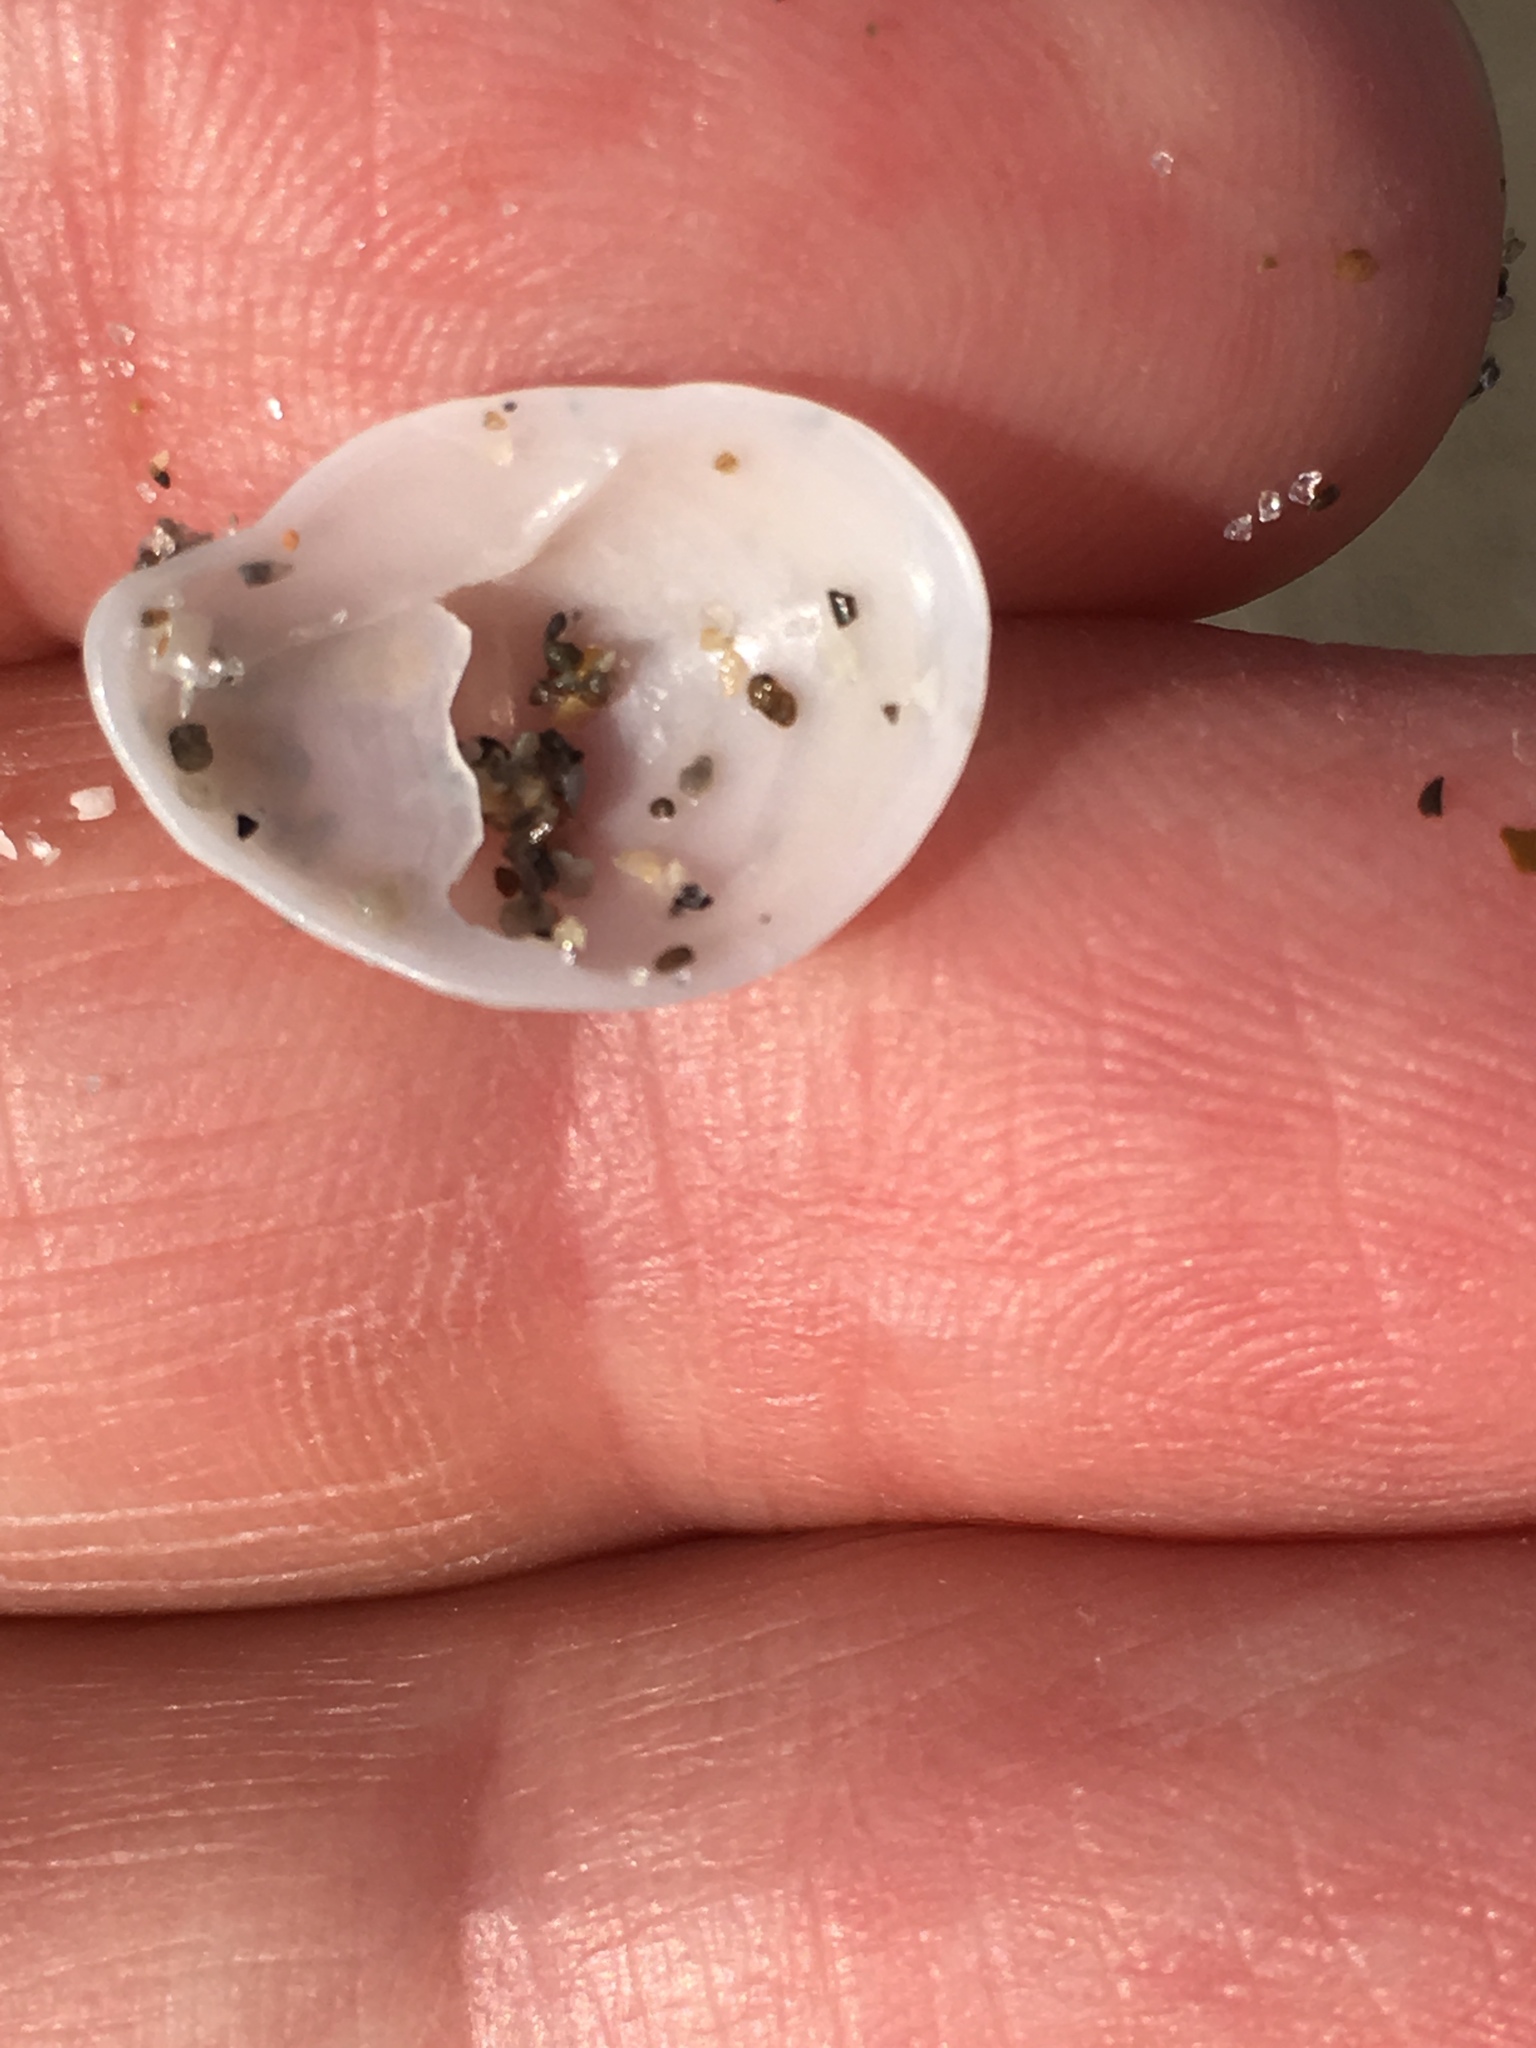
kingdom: Animalia
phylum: Mollusca
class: Gastropoda
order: Littorinimorpha
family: Calyptraeidae
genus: Crepidula
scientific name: Crepidula fornicata
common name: Slipper limpet
